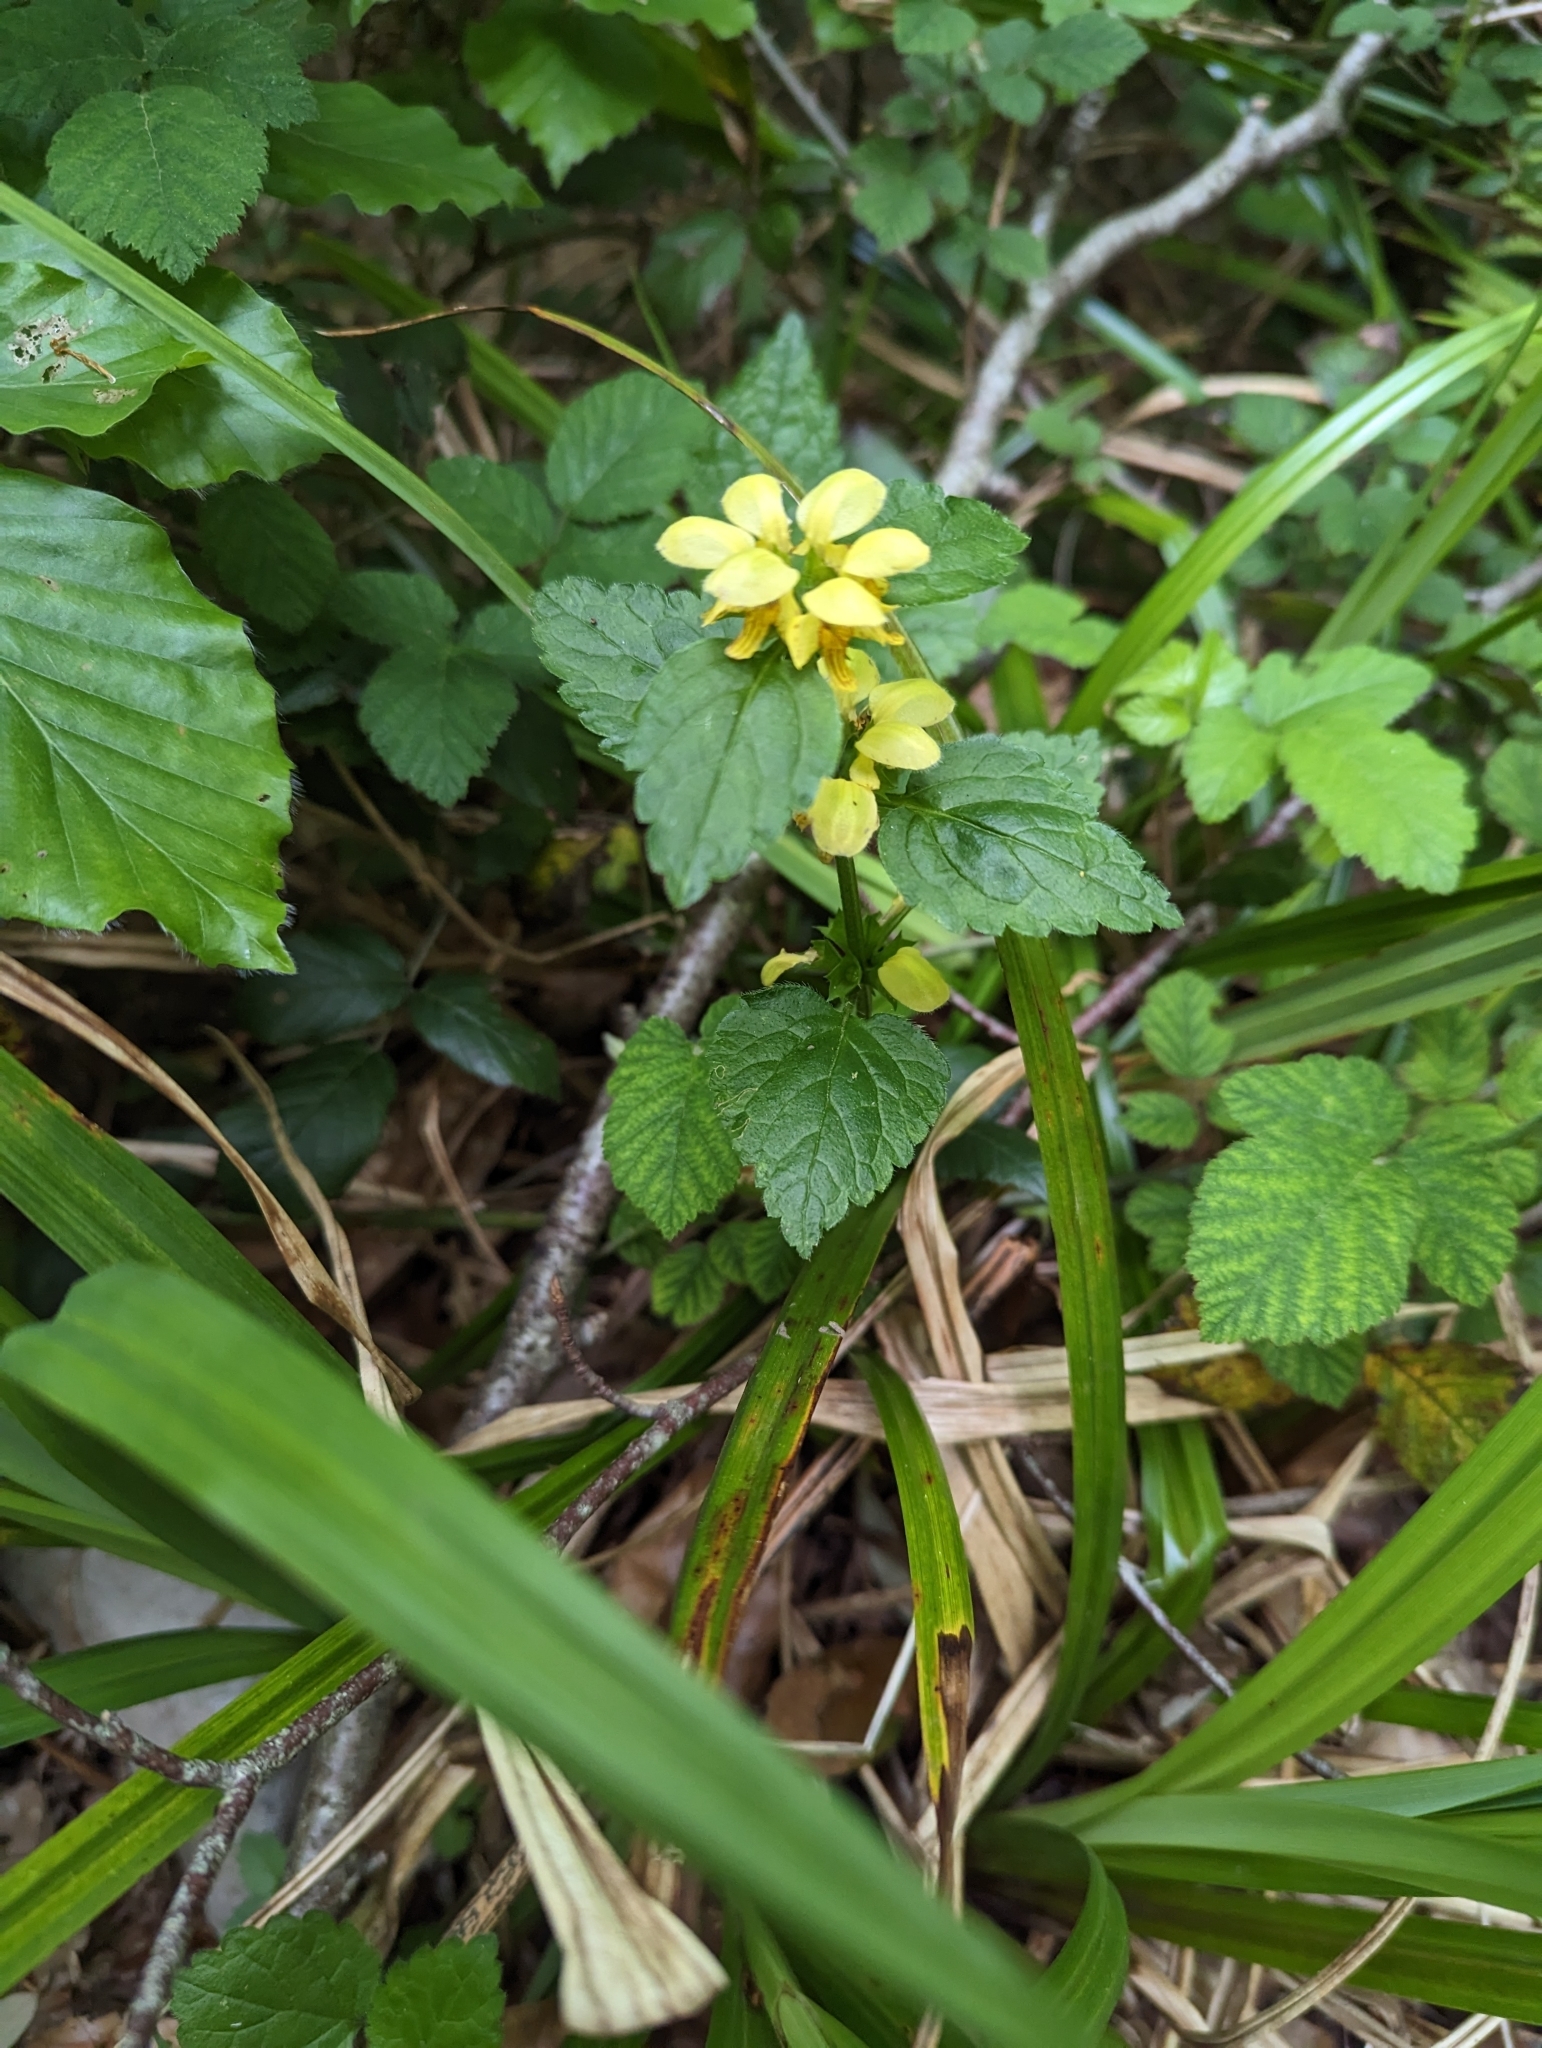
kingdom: Plantae
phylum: Tracheophyta
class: Magnoliopsida
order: Lamiales
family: Lamiaceae
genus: Lamium
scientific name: Lamium galeobdolon
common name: Yellow archangel
